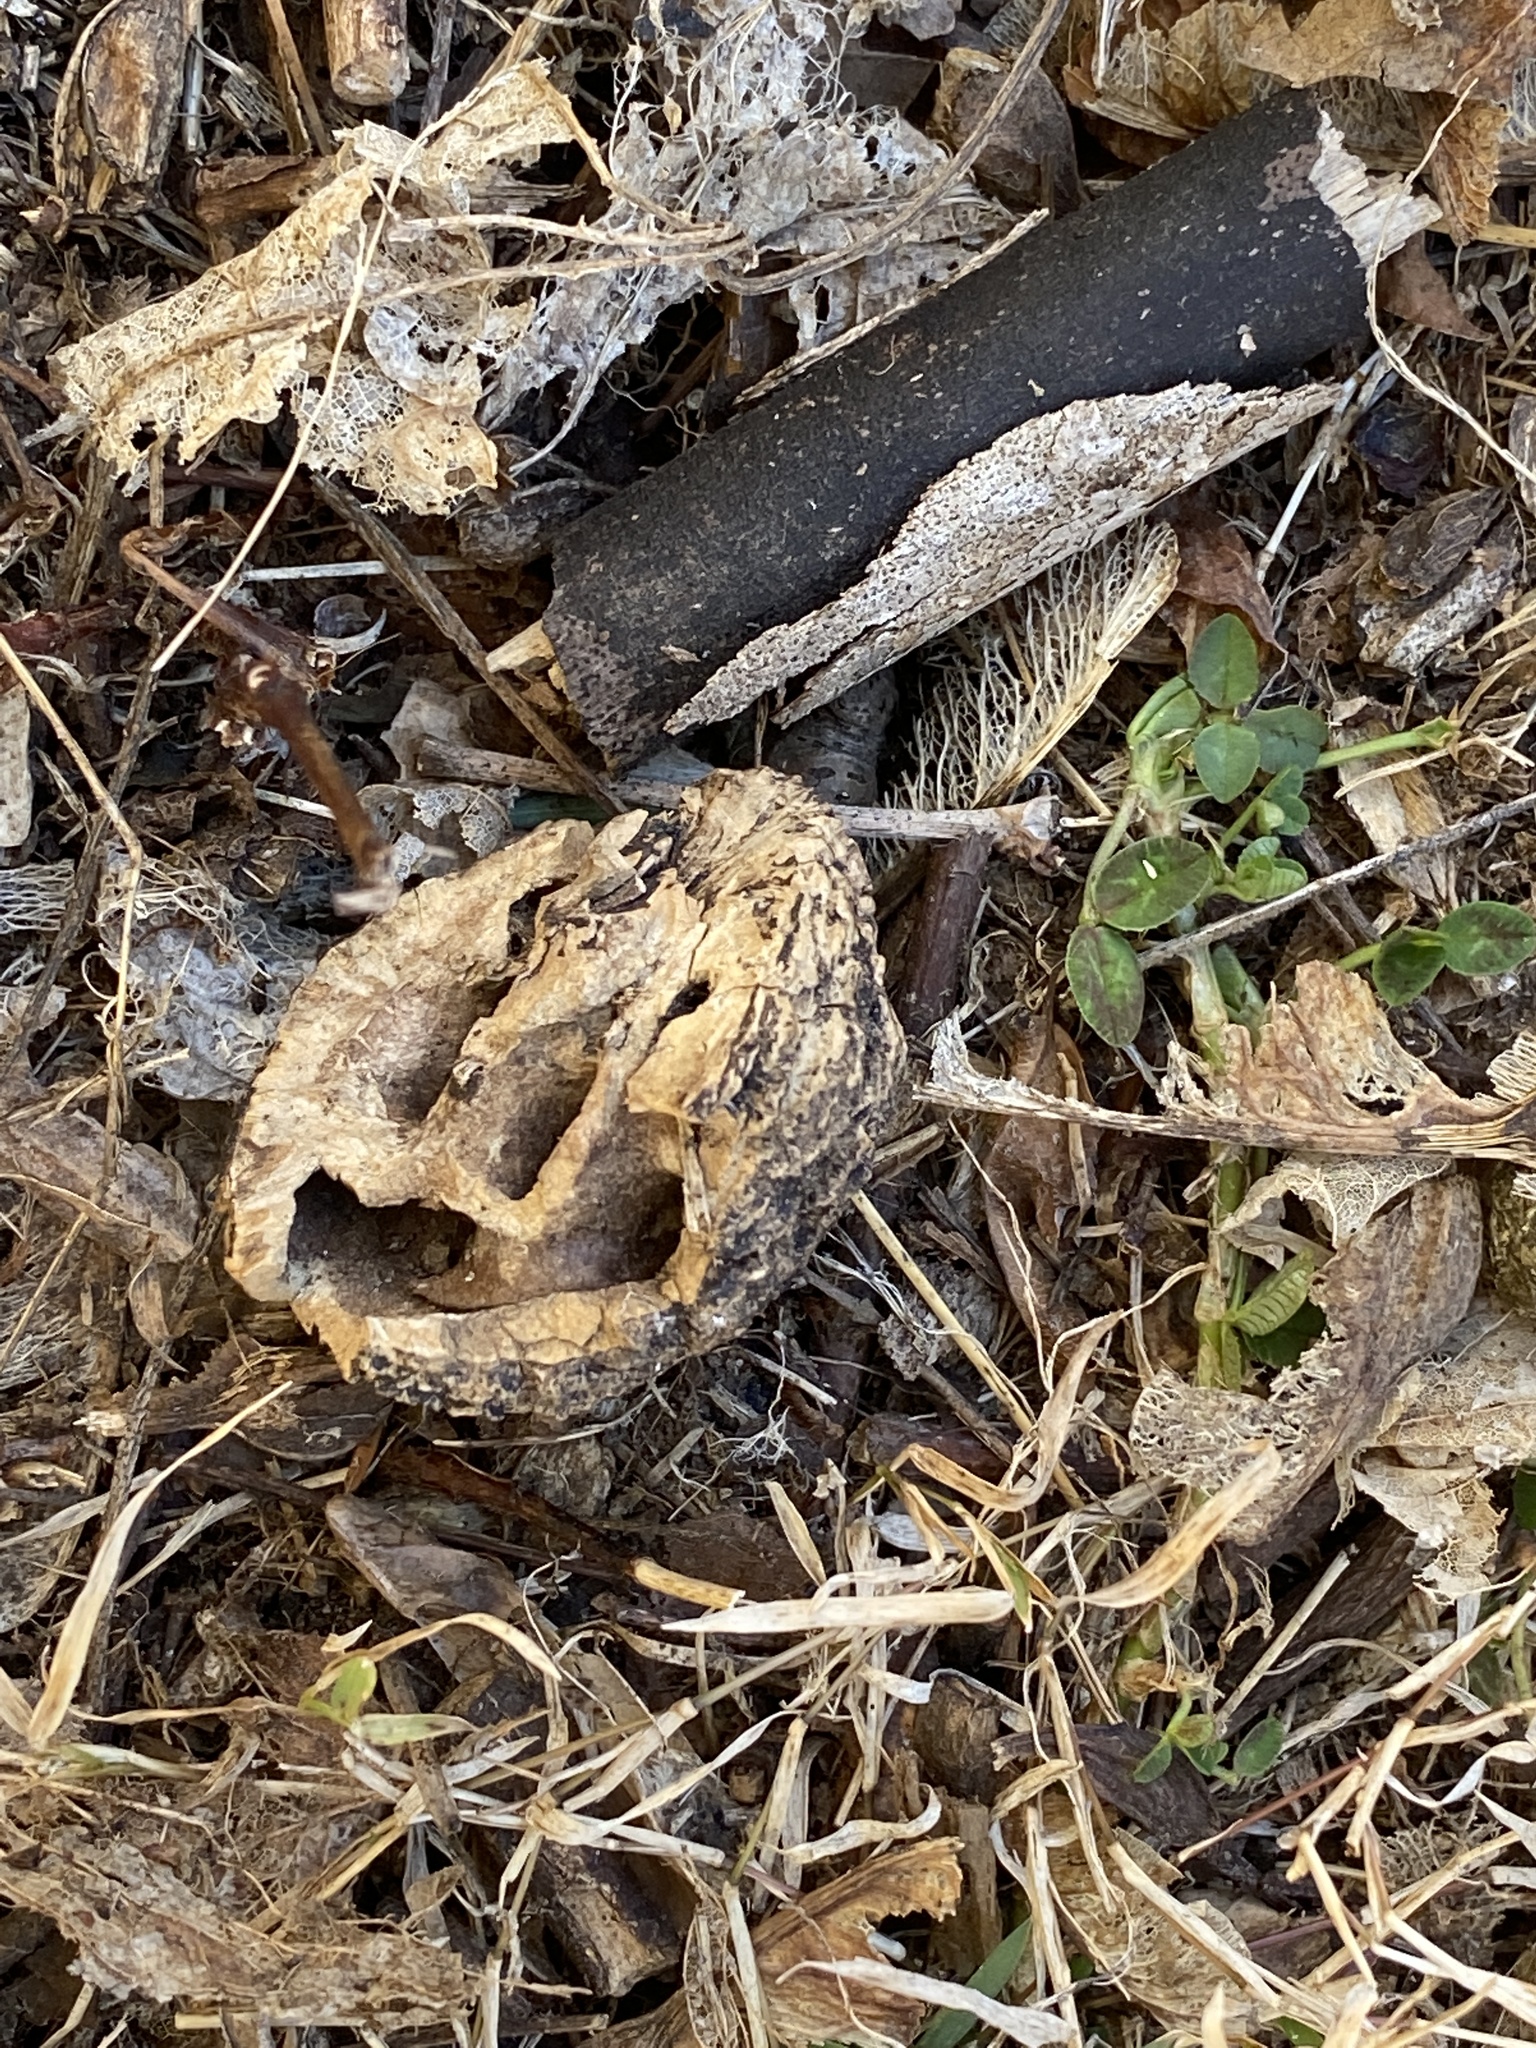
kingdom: Plantae
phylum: Tracheophyta
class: Magnoliopsida
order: Fagales
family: Juglandaceae
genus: Juglans
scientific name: Juglans nigra
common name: Black walnut
